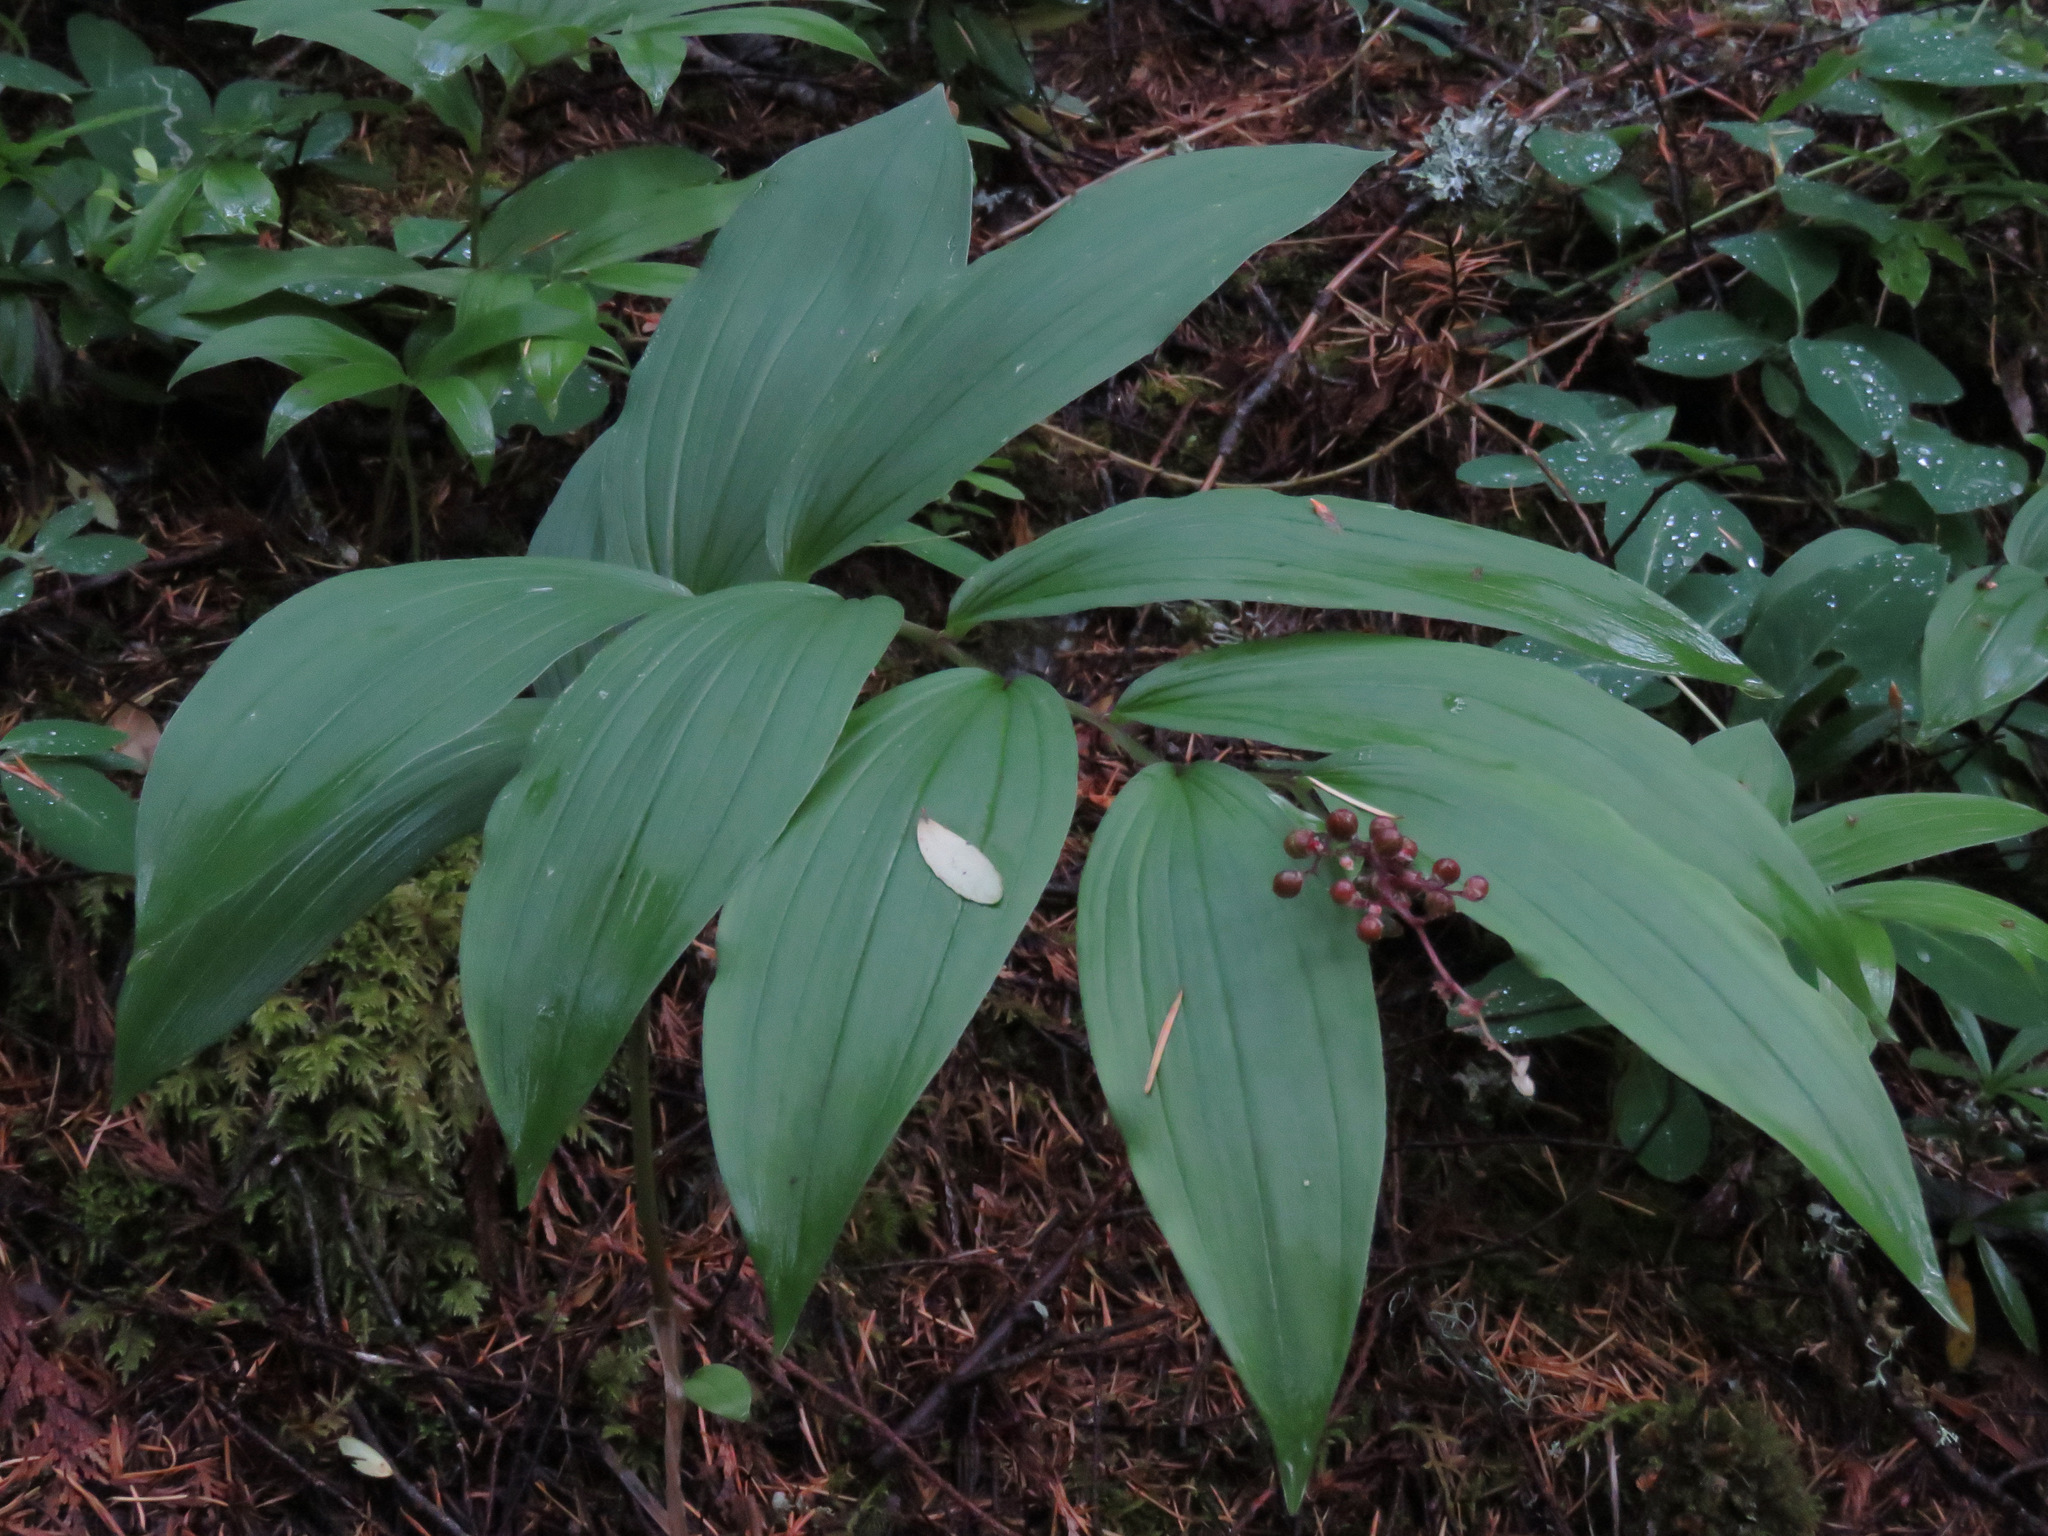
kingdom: Plantae
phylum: Tracheophyta
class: Liliopsida
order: Asparagales
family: Asparagaceae
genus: Maianthemum
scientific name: Maianthemum racemosum
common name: False spikenard
